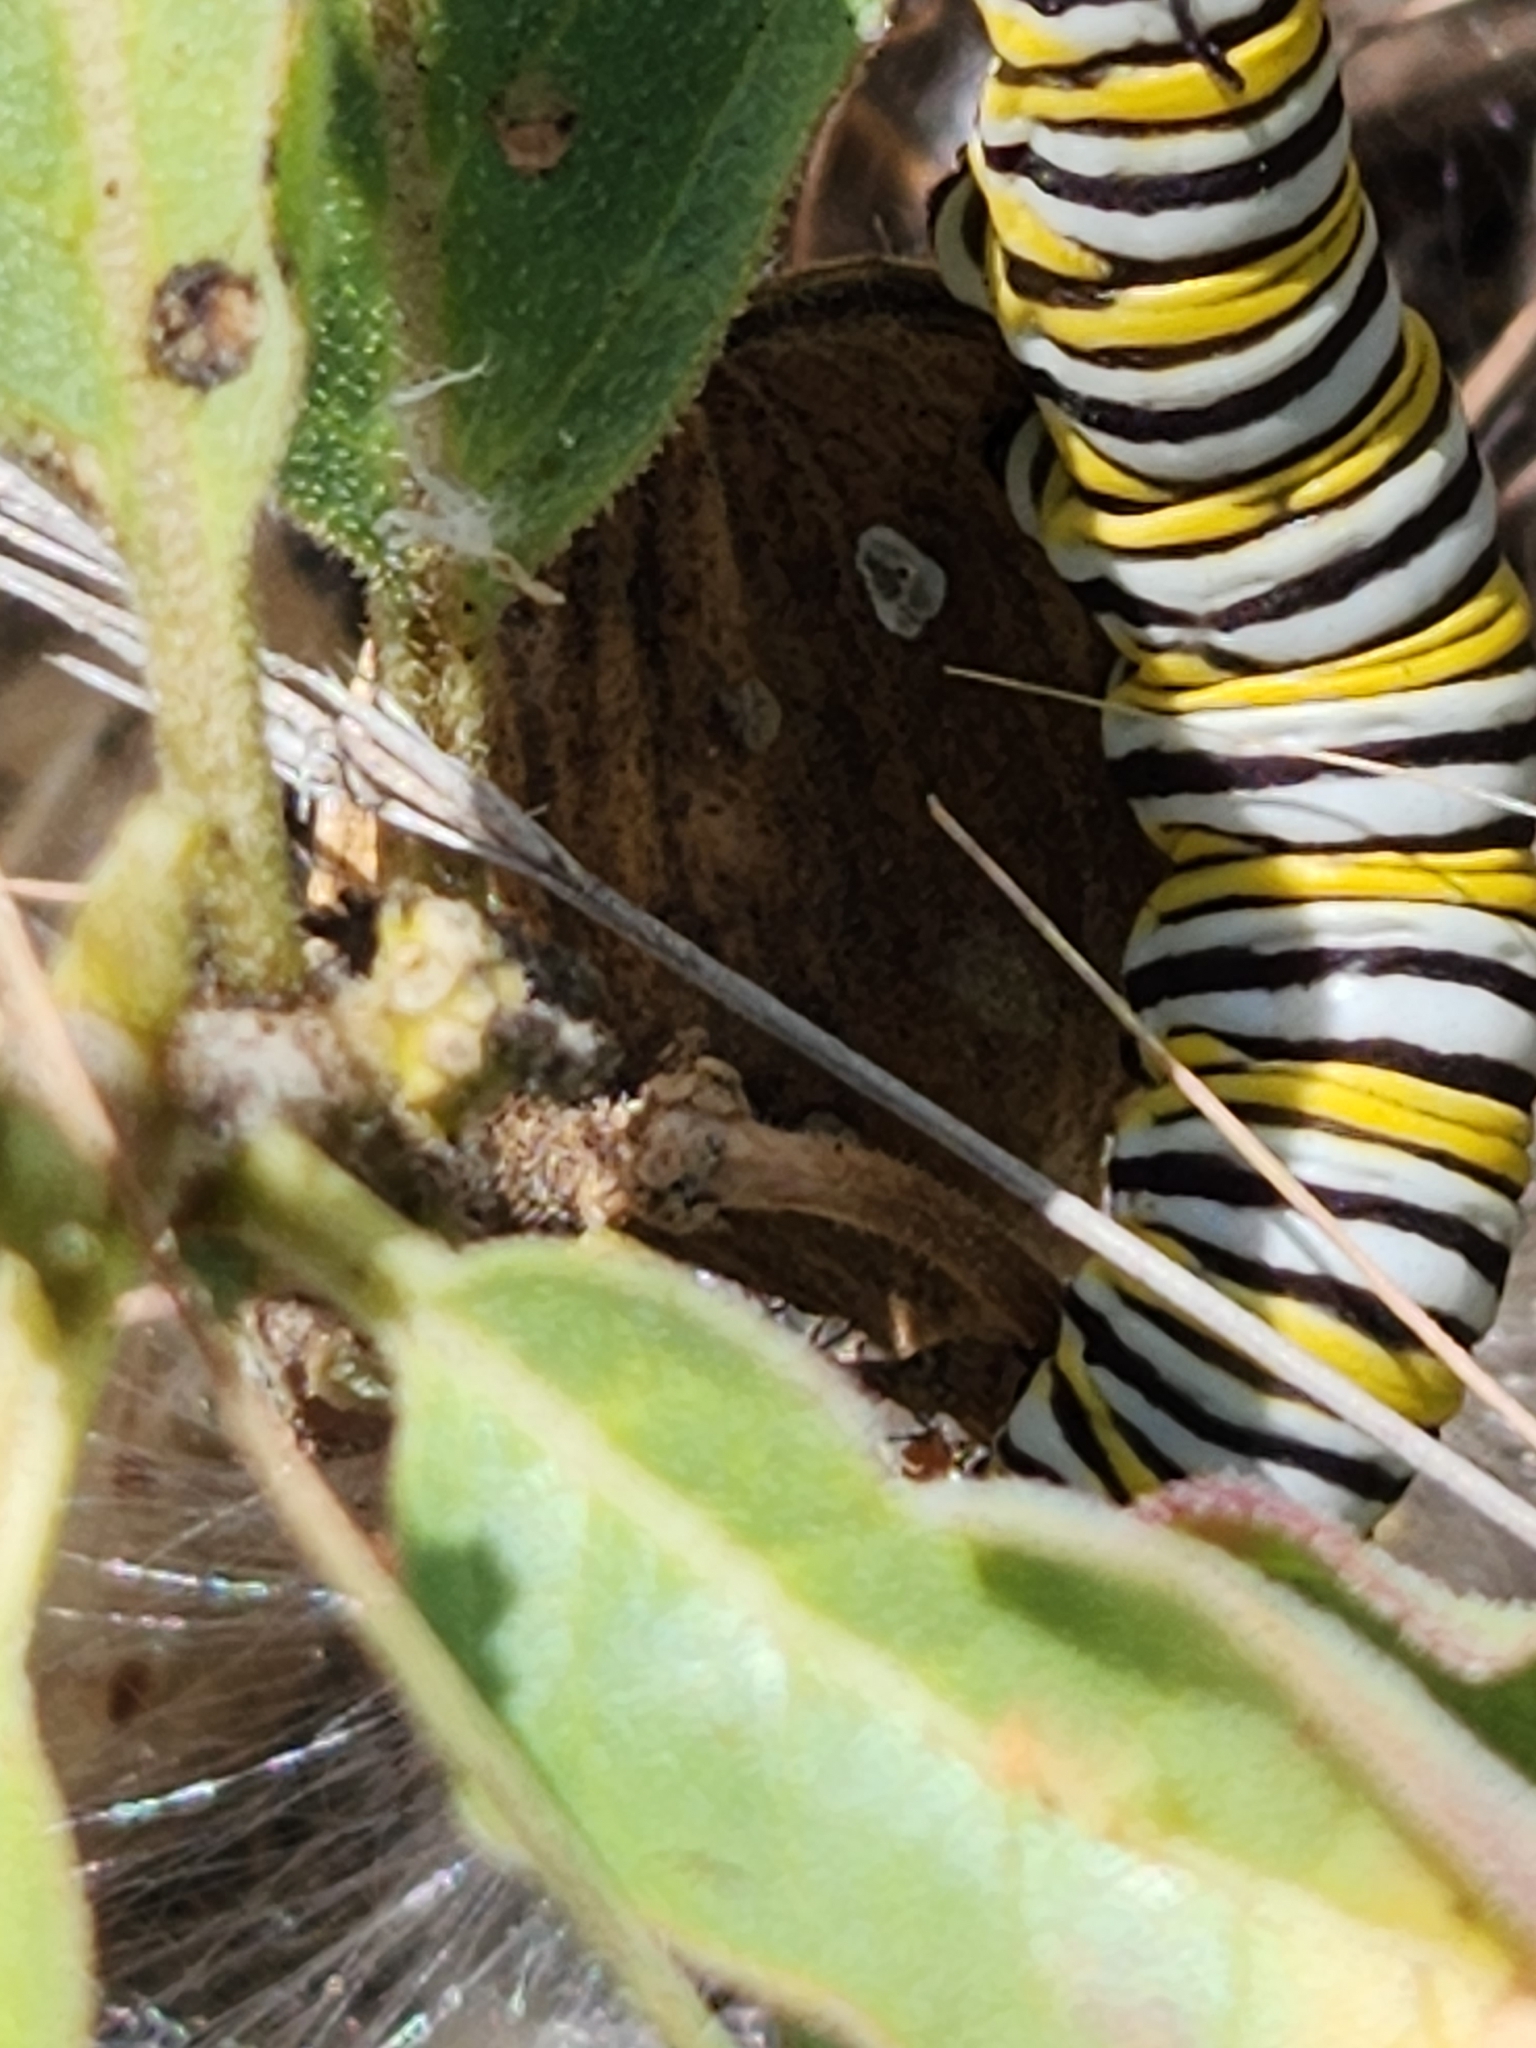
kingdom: Animalia
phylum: Arthropoda
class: Insecta
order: Lepidoptera
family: Nymphalidae
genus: Danaus
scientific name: Danaus plexippus
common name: Monarch
